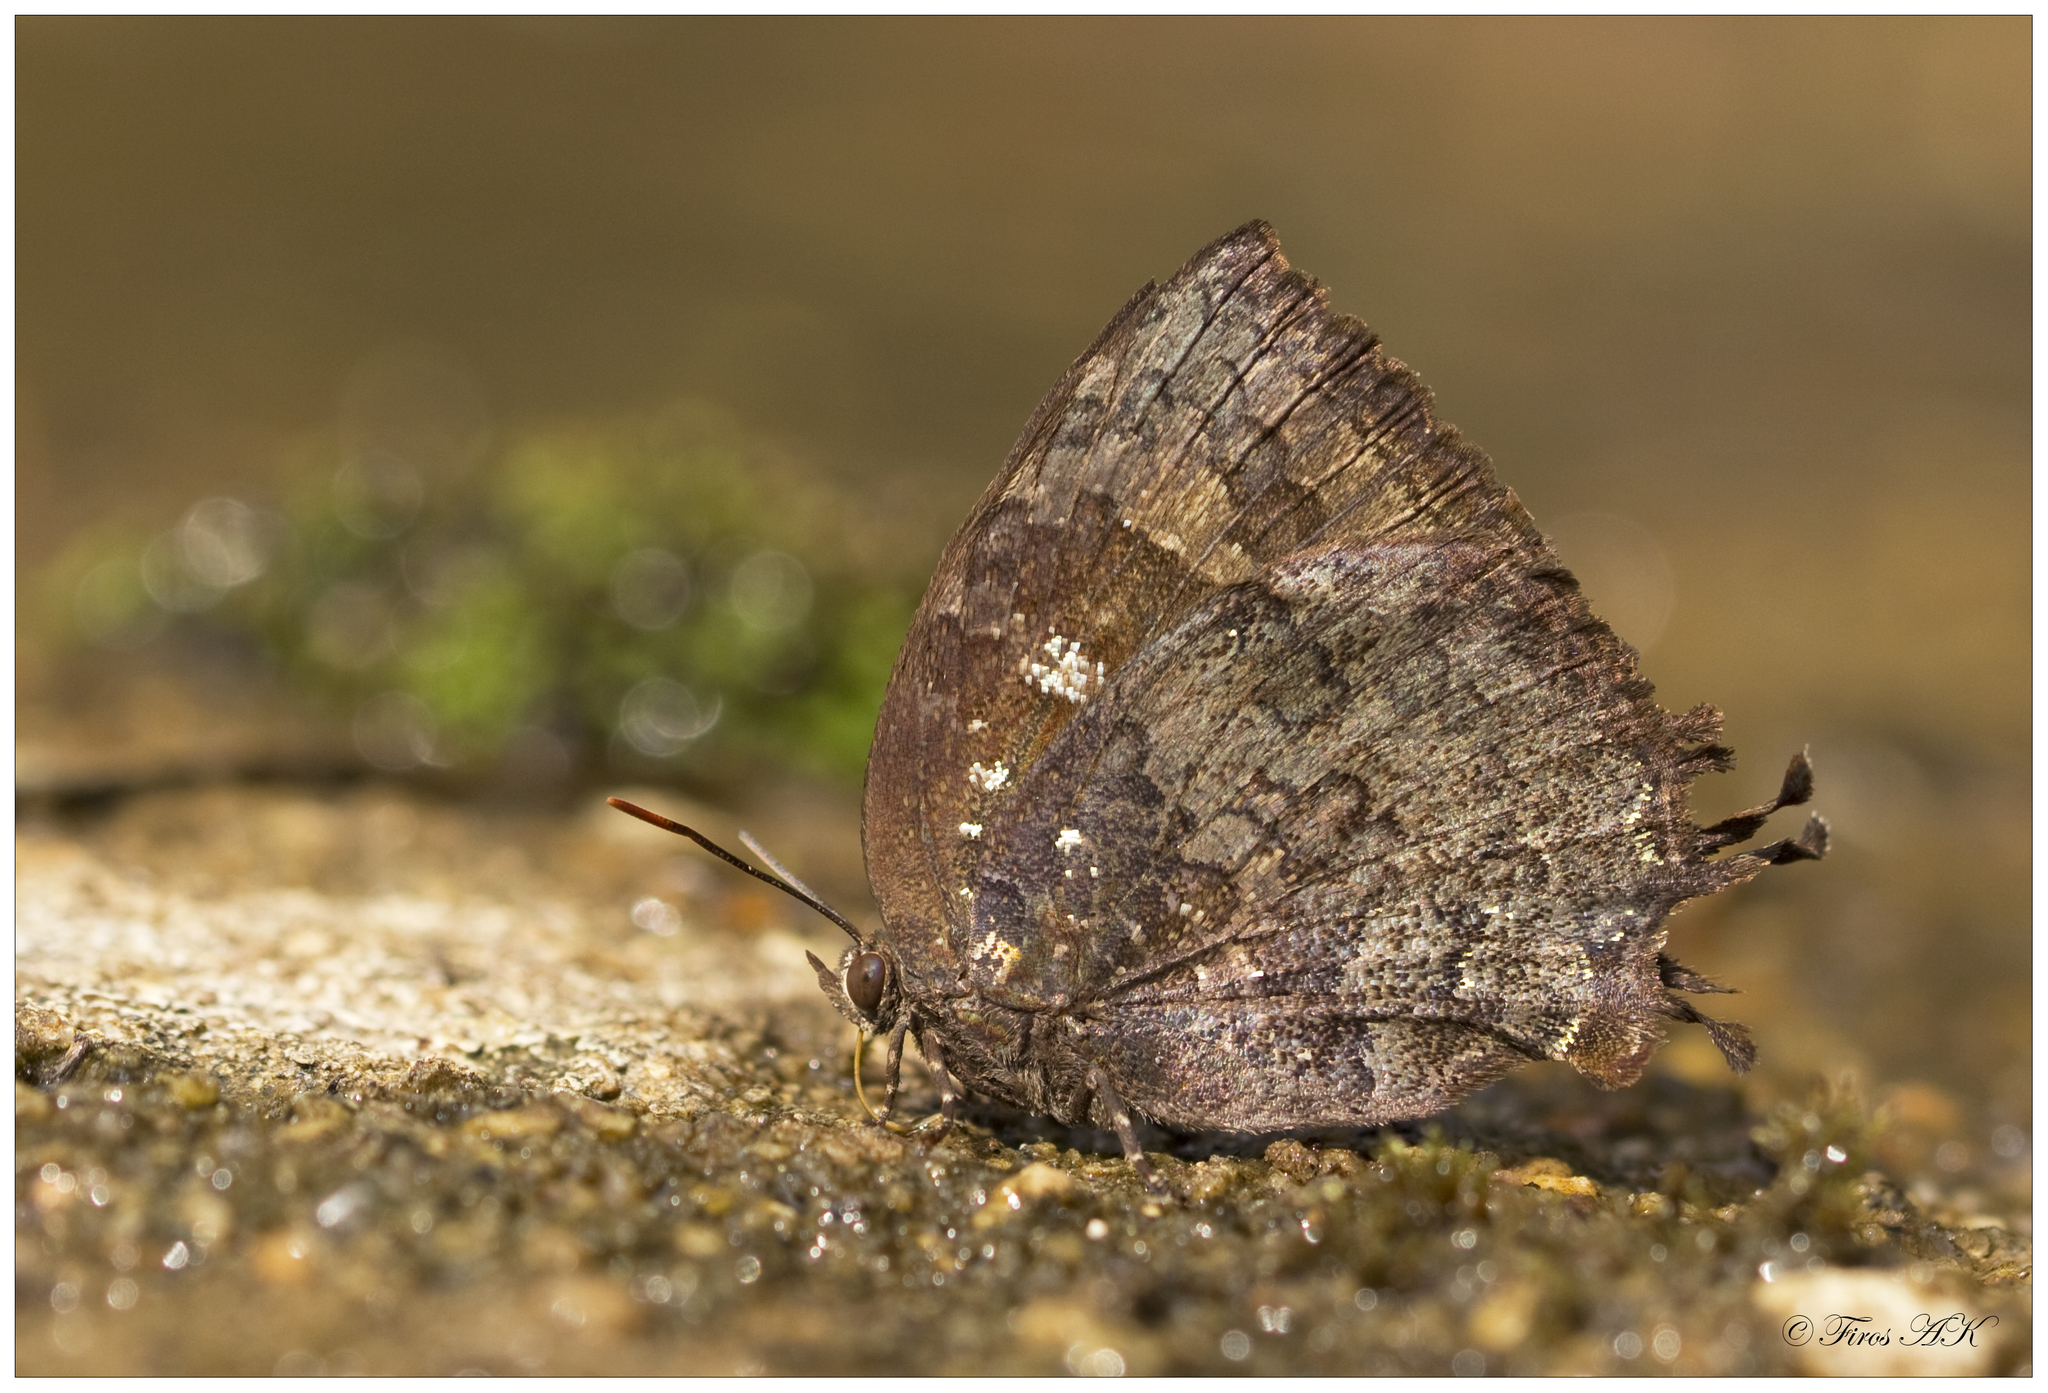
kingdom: Animalia
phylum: Arthropoda
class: Insecta
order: Lepidoptera
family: Lycaenidae
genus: Thaduka
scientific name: Thaduka multicaudata
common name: Many-tailed oakblue
